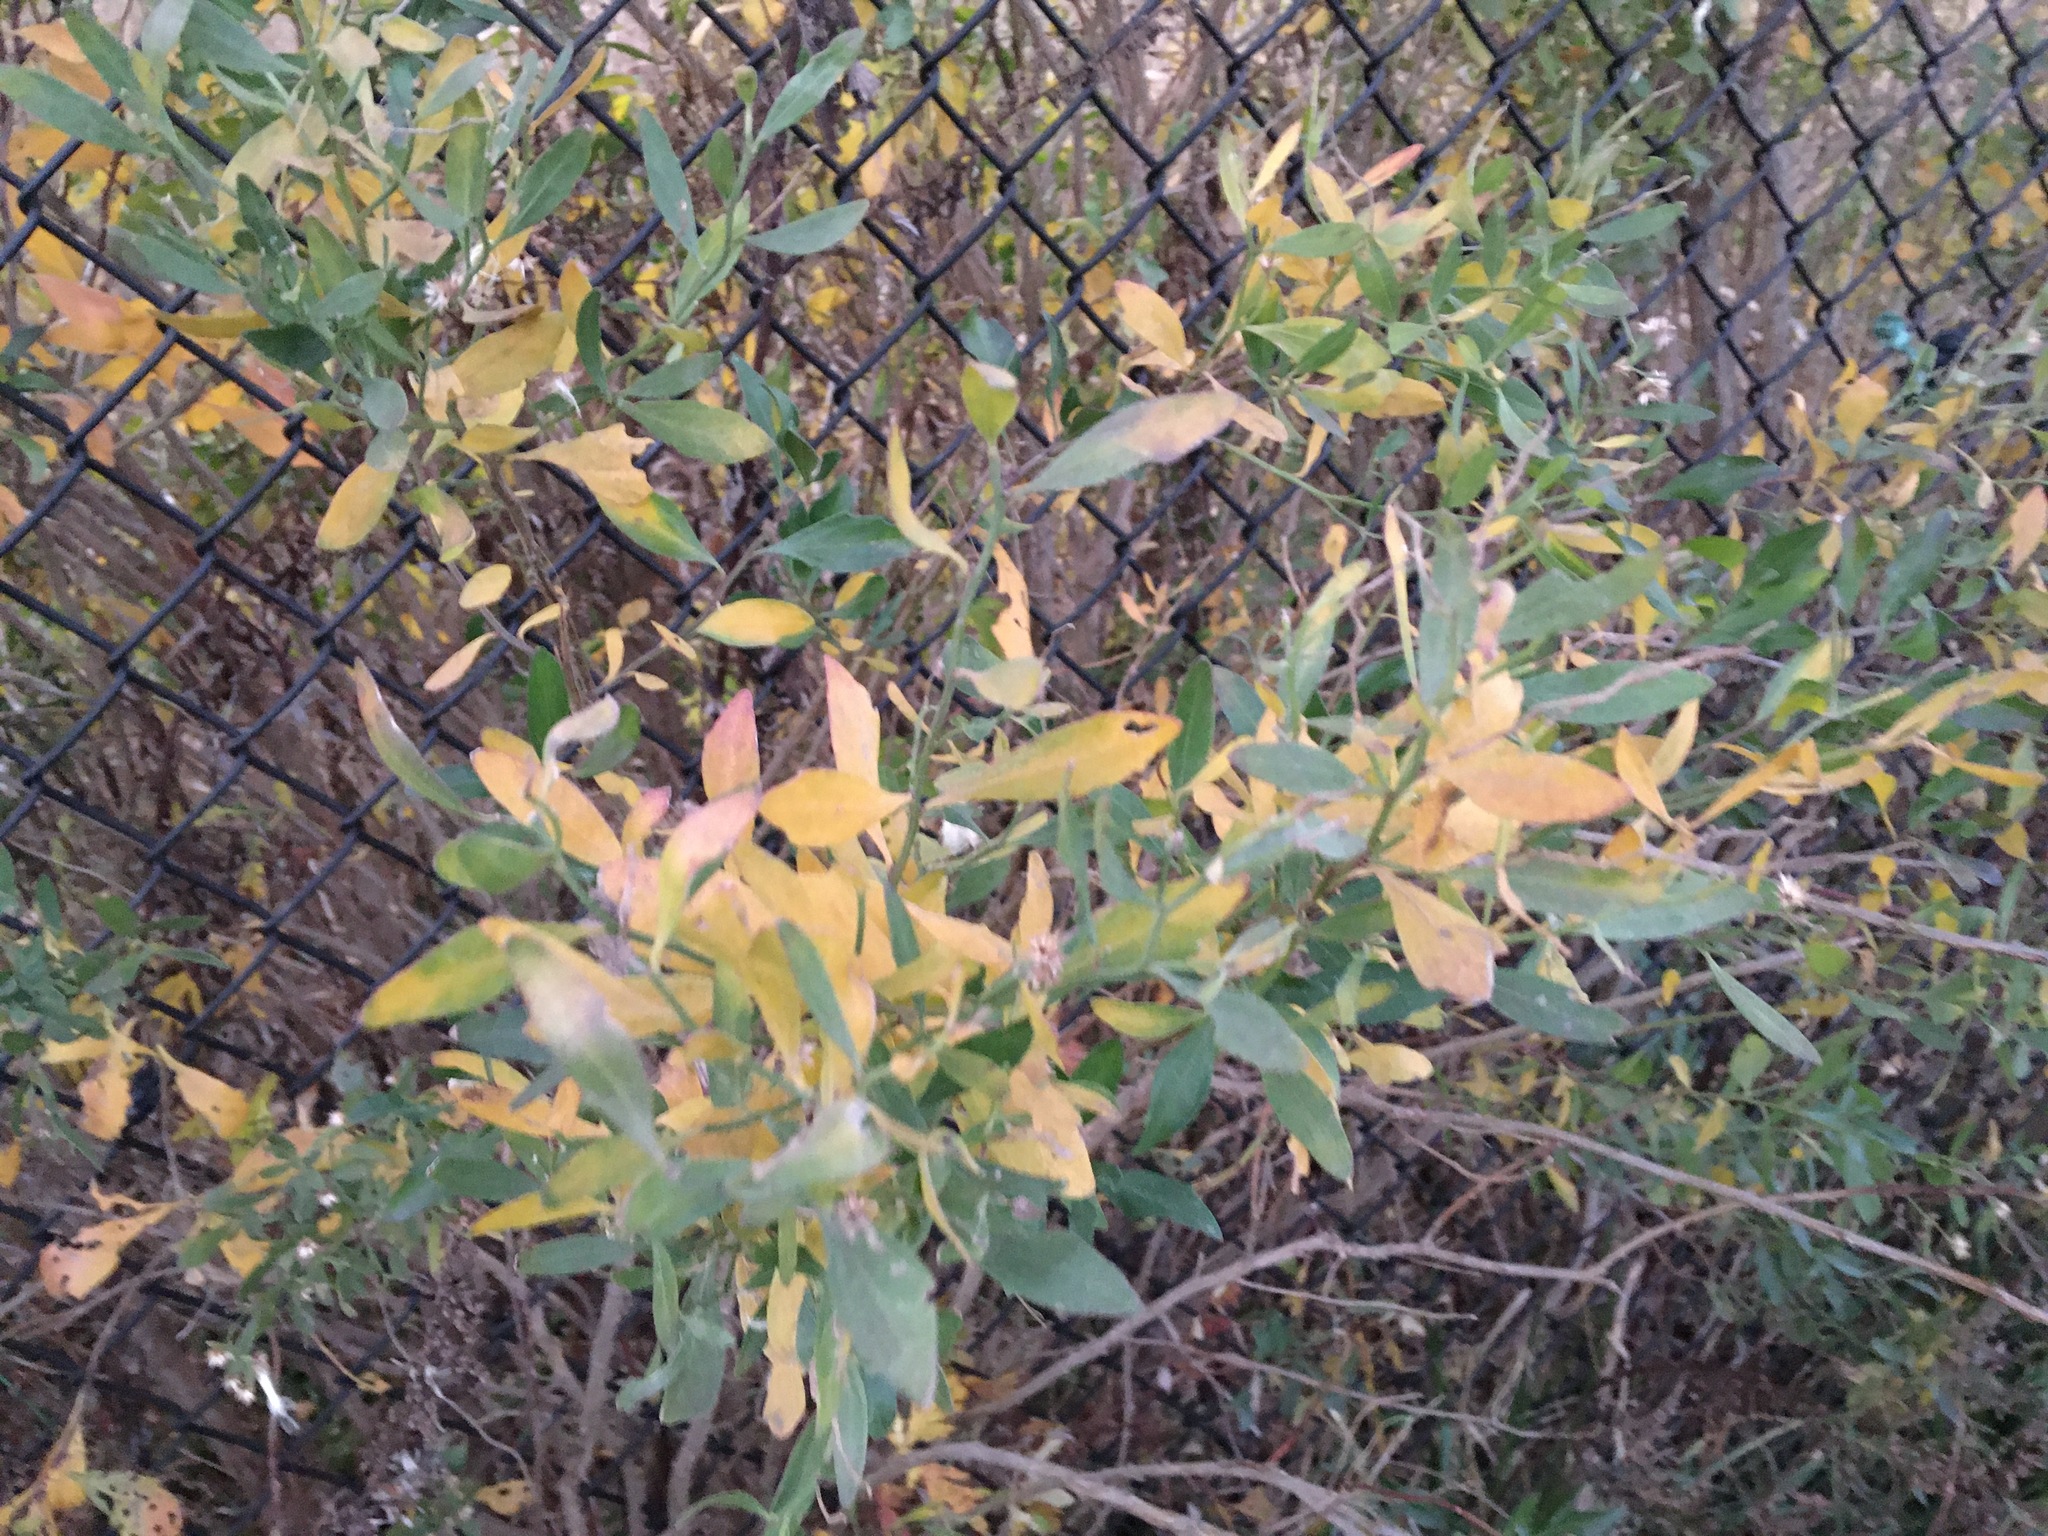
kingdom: Plantae
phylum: Tracheophyta
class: Magnoliopsida
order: Asterales
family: Asteraceae
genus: Baccharis
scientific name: Baccharis halimifolia
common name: Eastern baccharis
